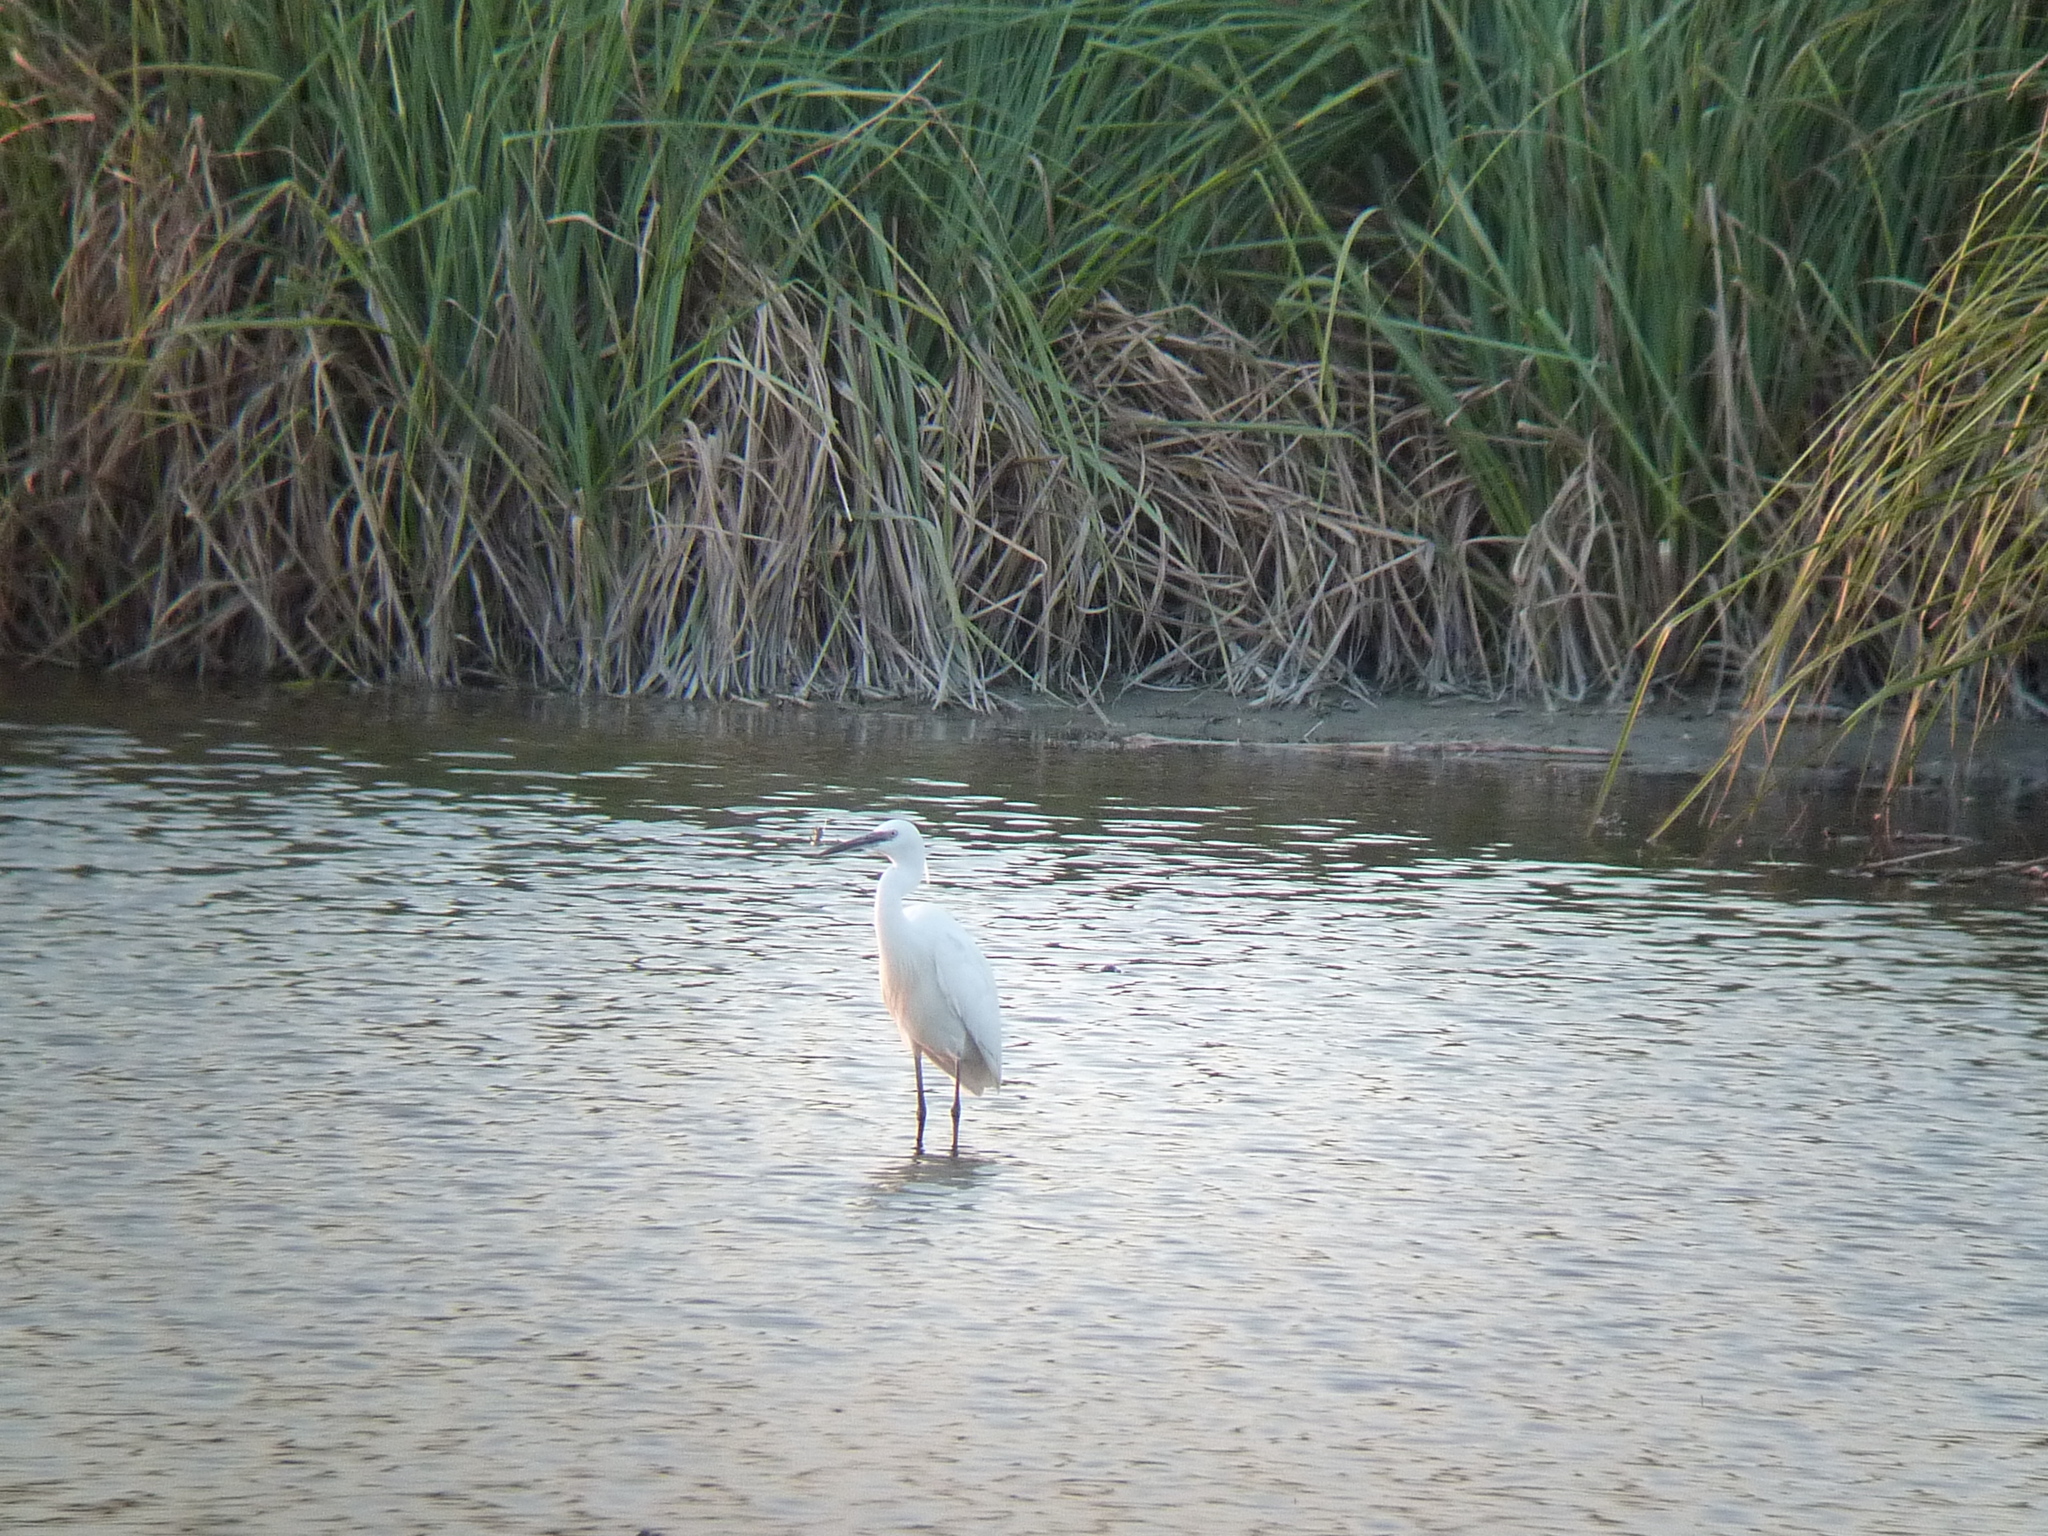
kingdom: Animalia
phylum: Chordata
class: Aves
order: Pelecaniformes
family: Ardeidae
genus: Egretta
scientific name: Egretta garzetta
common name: Little egret
